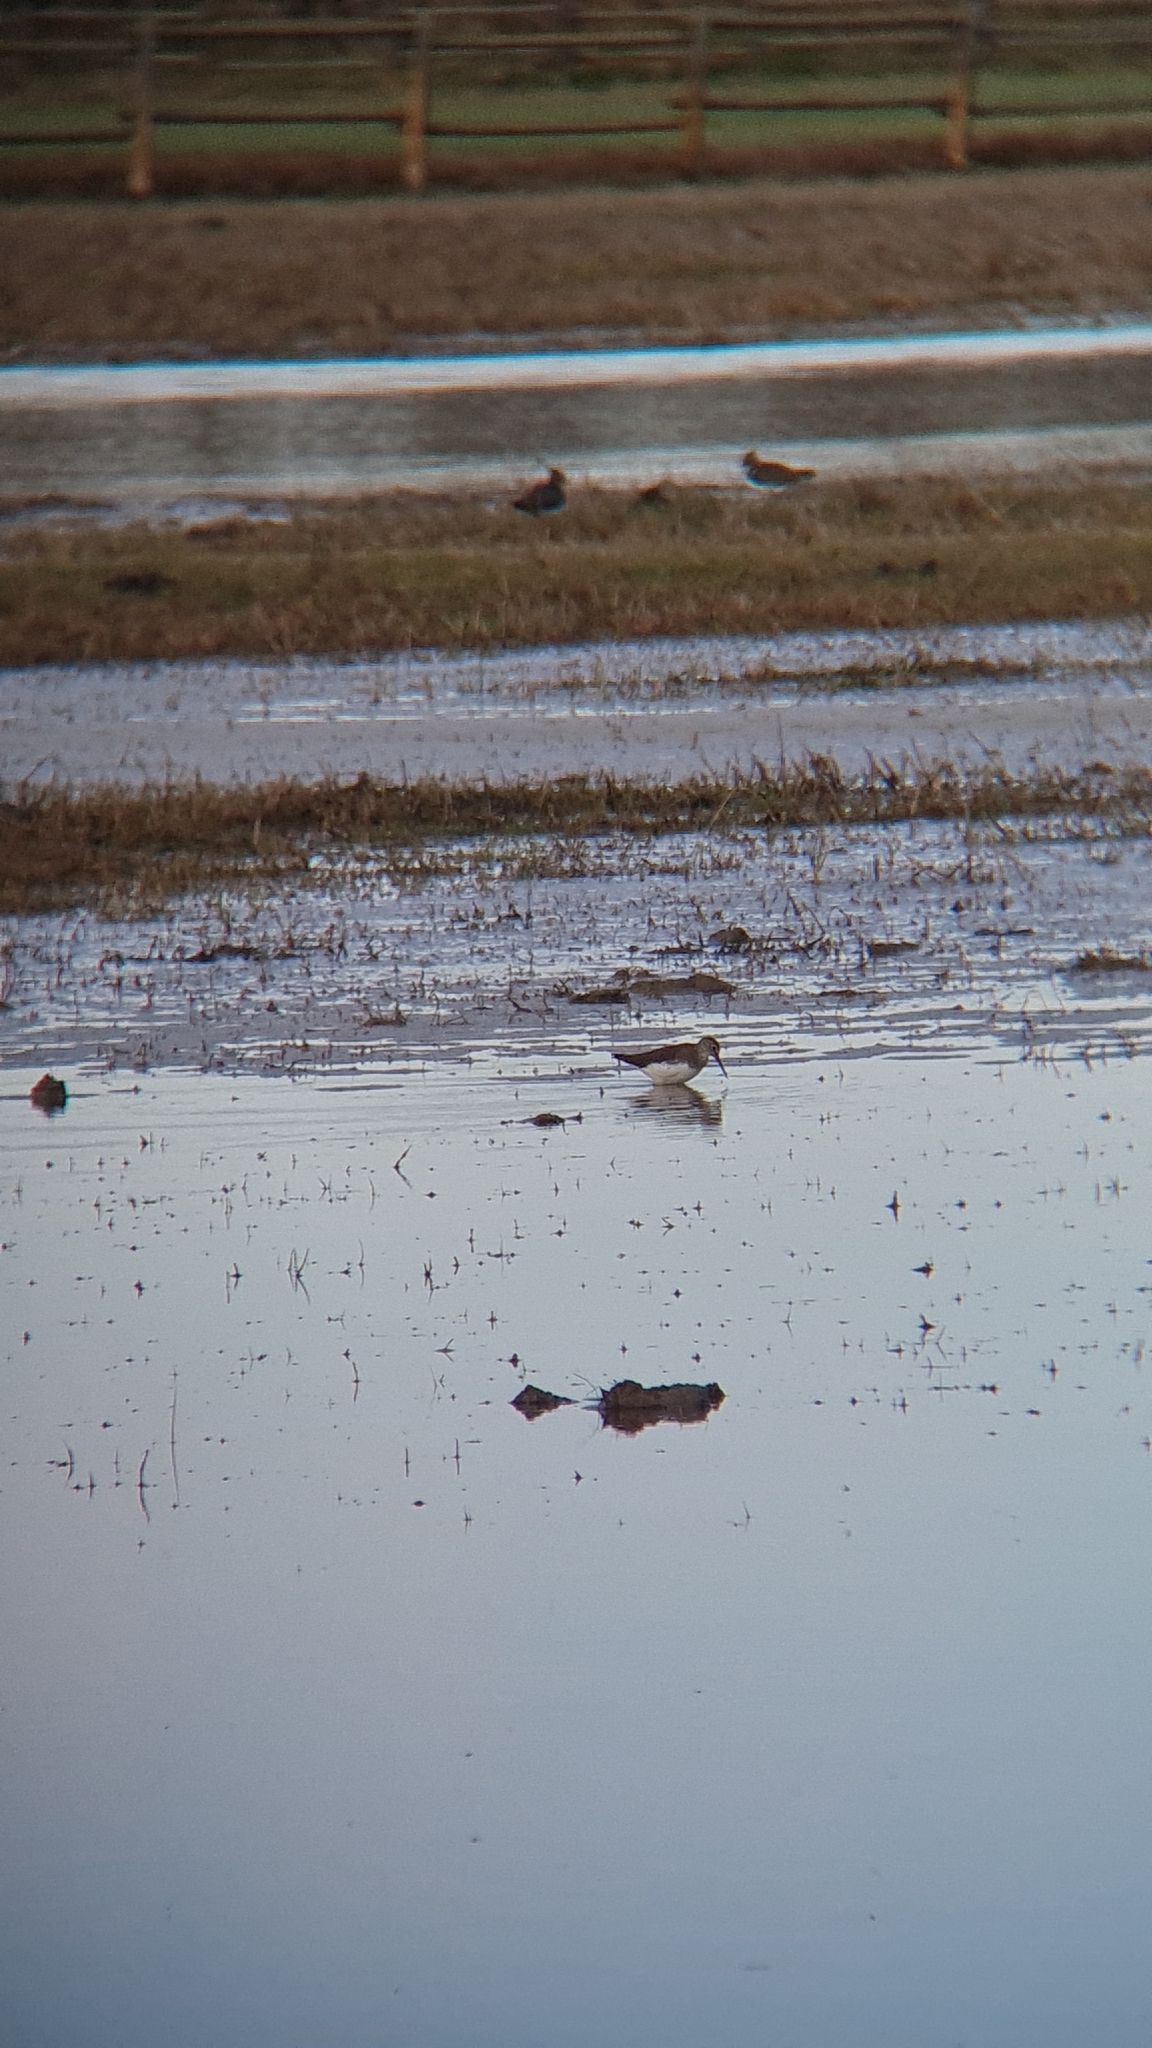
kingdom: Animalia
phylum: Chordata
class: Aves
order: Charadriiformes
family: Scolopacidae
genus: Tringa
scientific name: Tringa ochropus
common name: Green sandpiper
